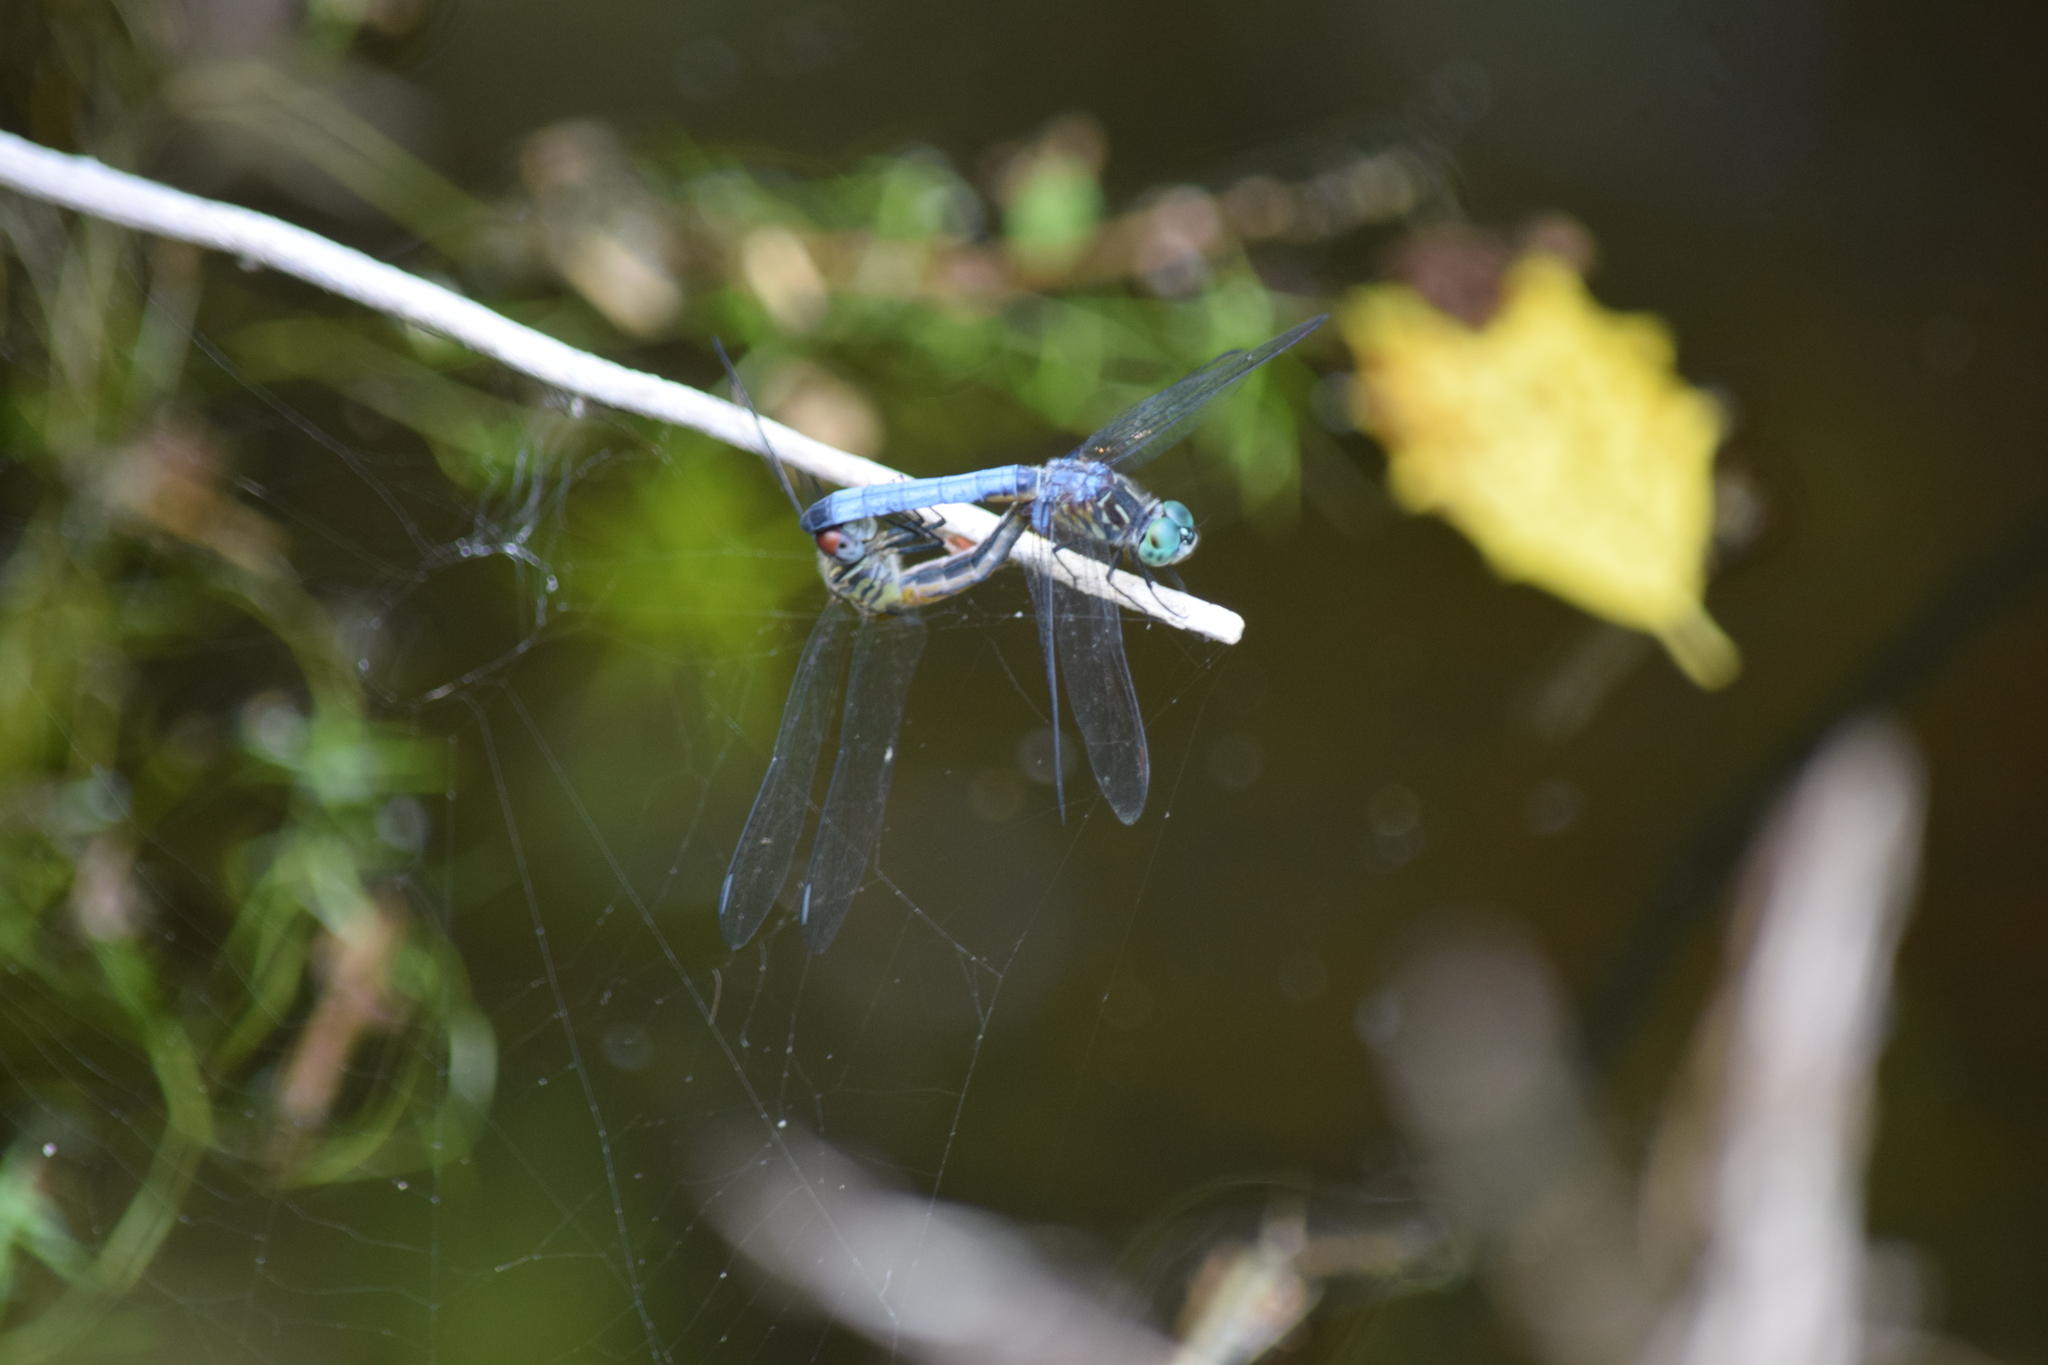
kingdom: Animalia
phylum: Arthropoda
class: Insecta
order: Odonata
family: Libellulidae
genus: Pachydiplax
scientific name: Pachydiplax longipennis
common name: Blue dasher
